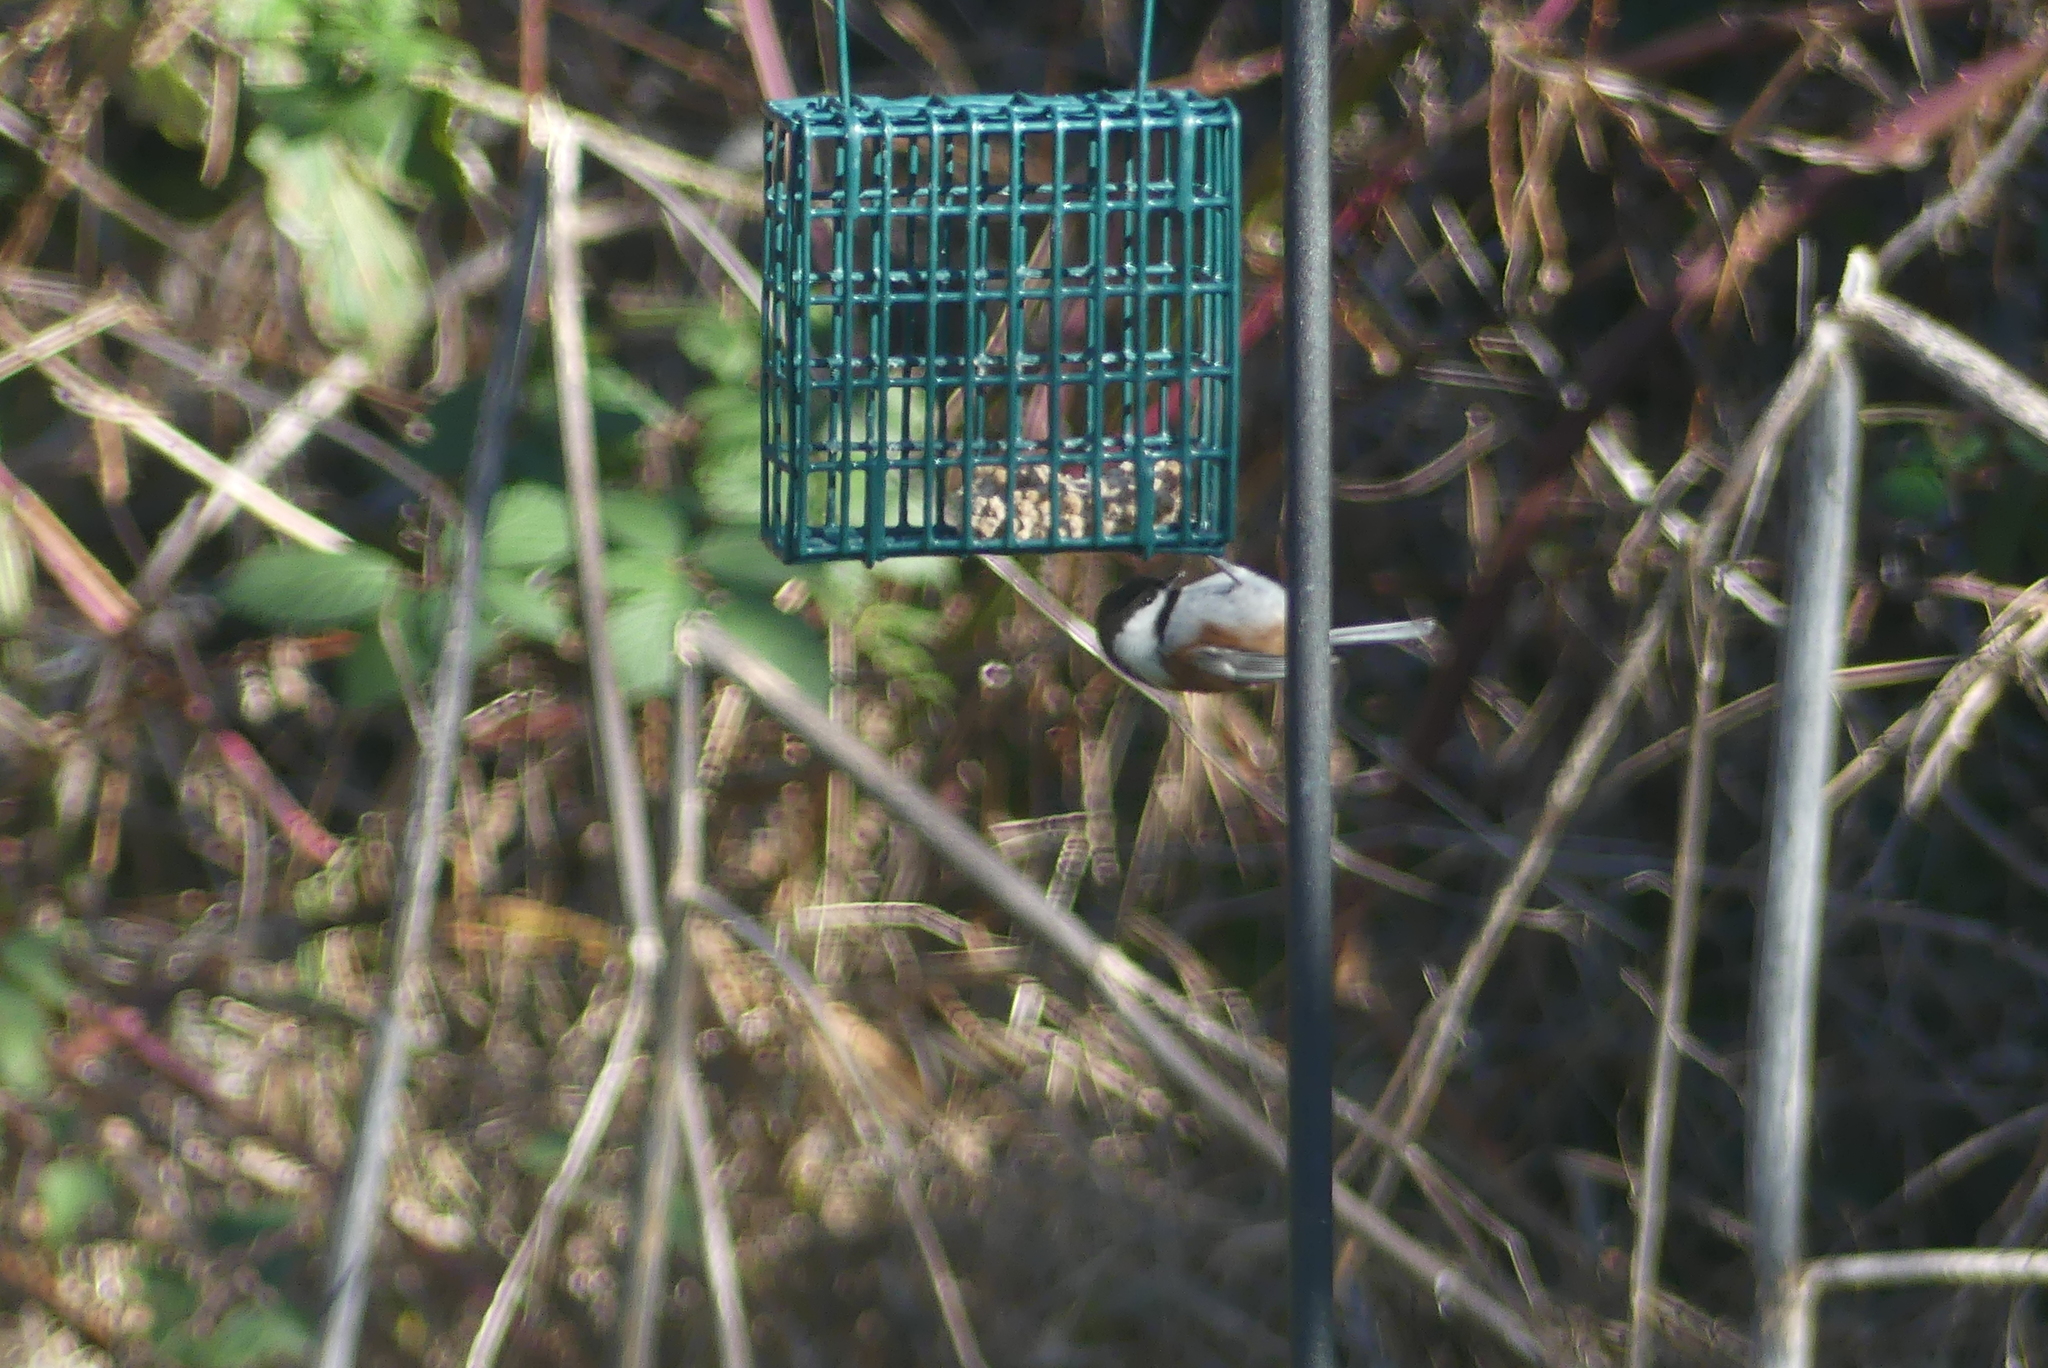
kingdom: Animalia
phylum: Chordata
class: Aves
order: Passeriformes
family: Paridae
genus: Poecile
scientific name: Poecile rufescens
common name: Chestnut-backed chickadee
